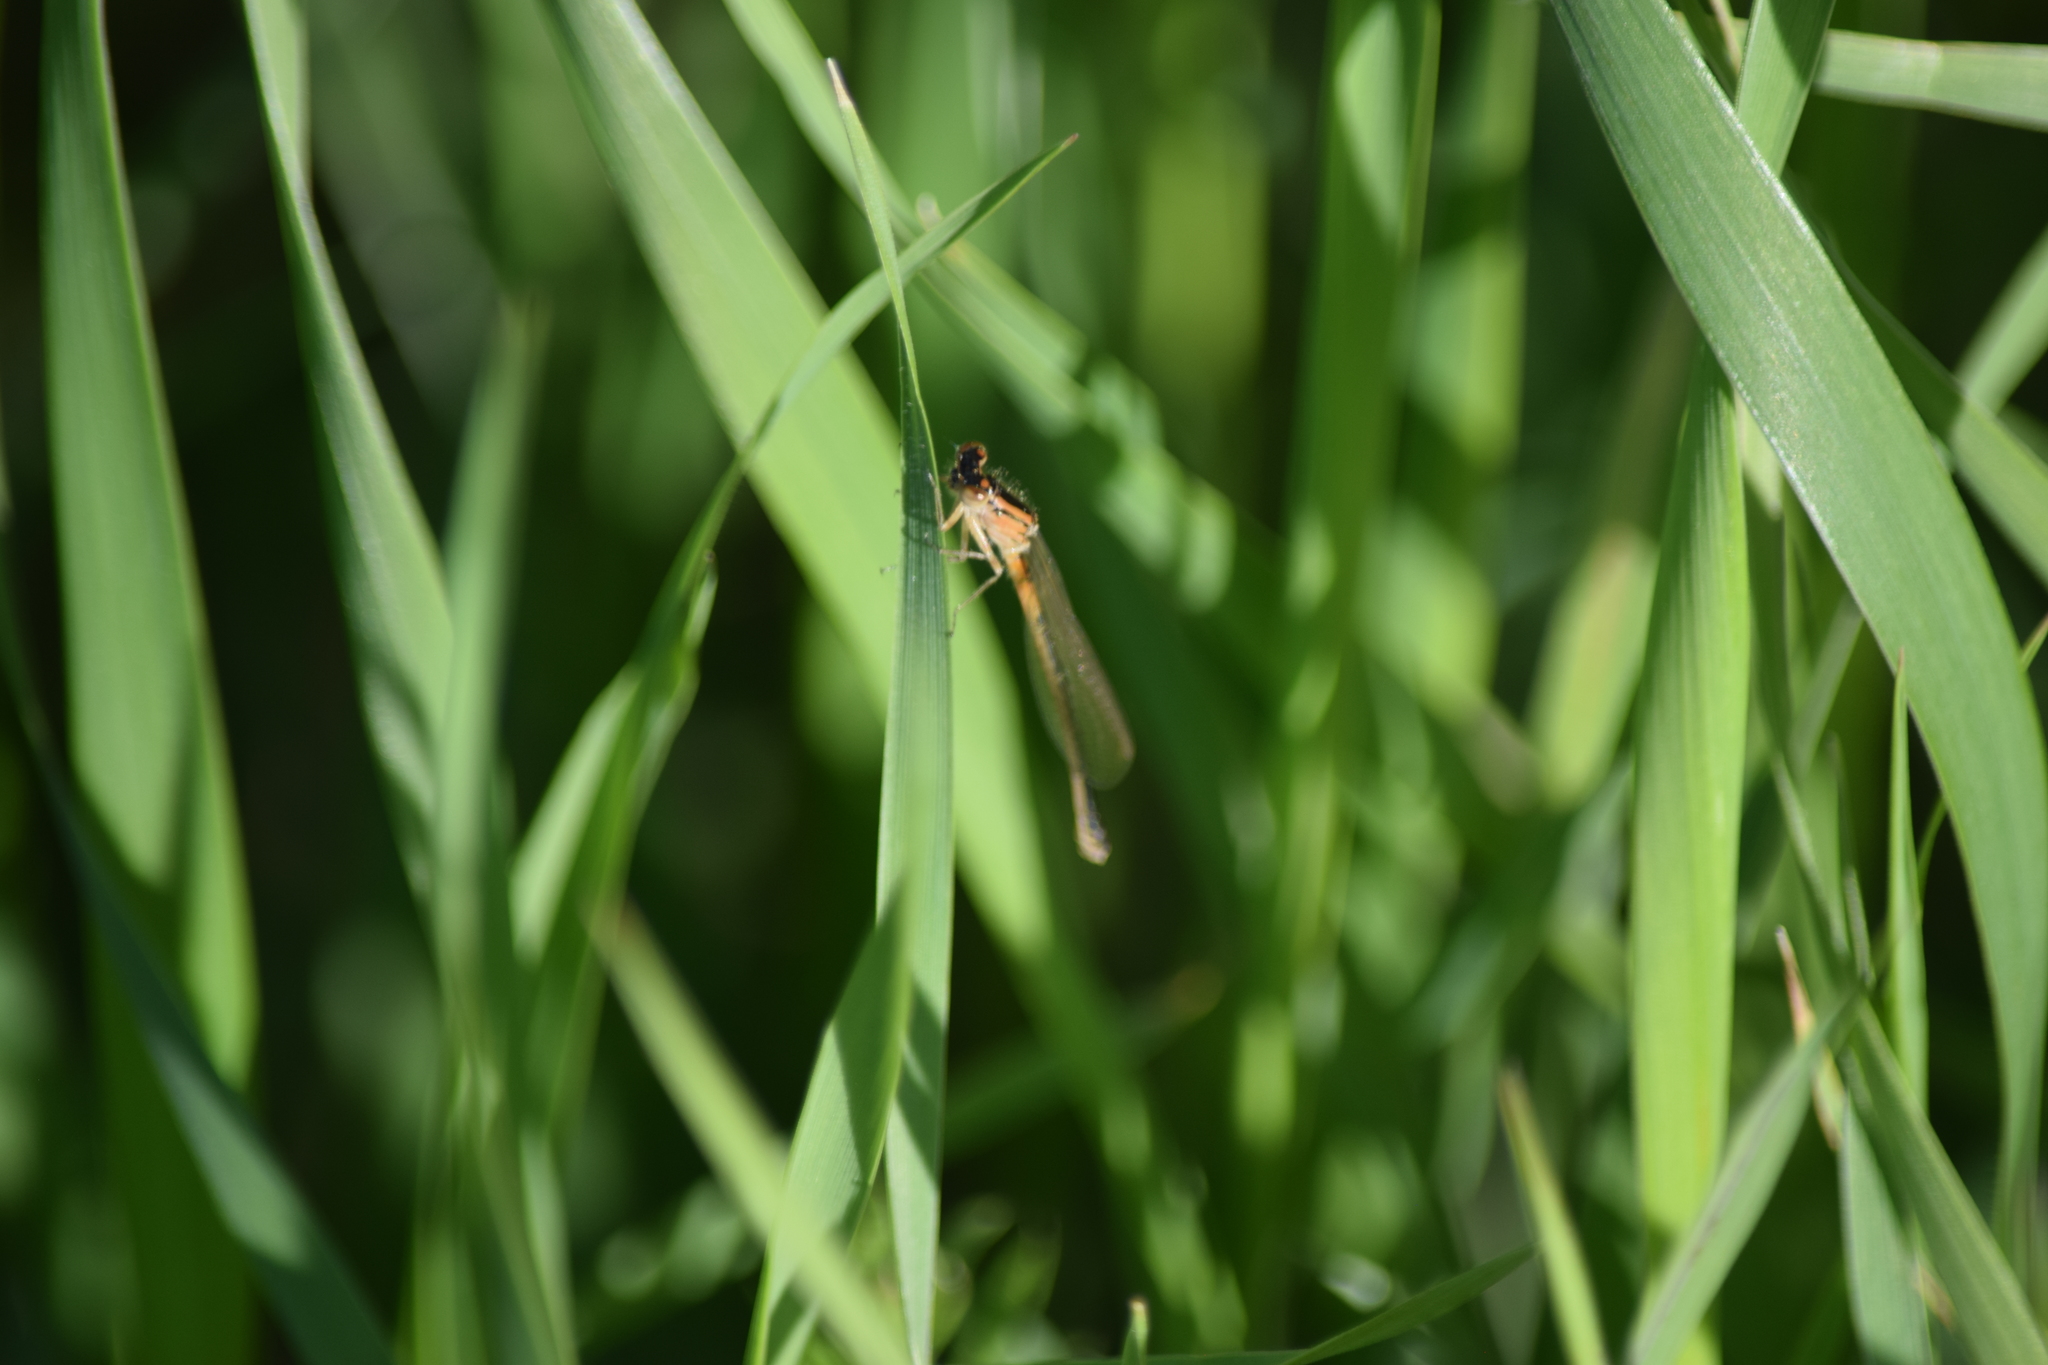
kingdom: Animalia
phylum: Arthropoda
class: Insecta
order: Odonata
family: Coenagrionidae
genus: Ischnura
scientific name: Ischnura hastata
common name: Citrine forktail
